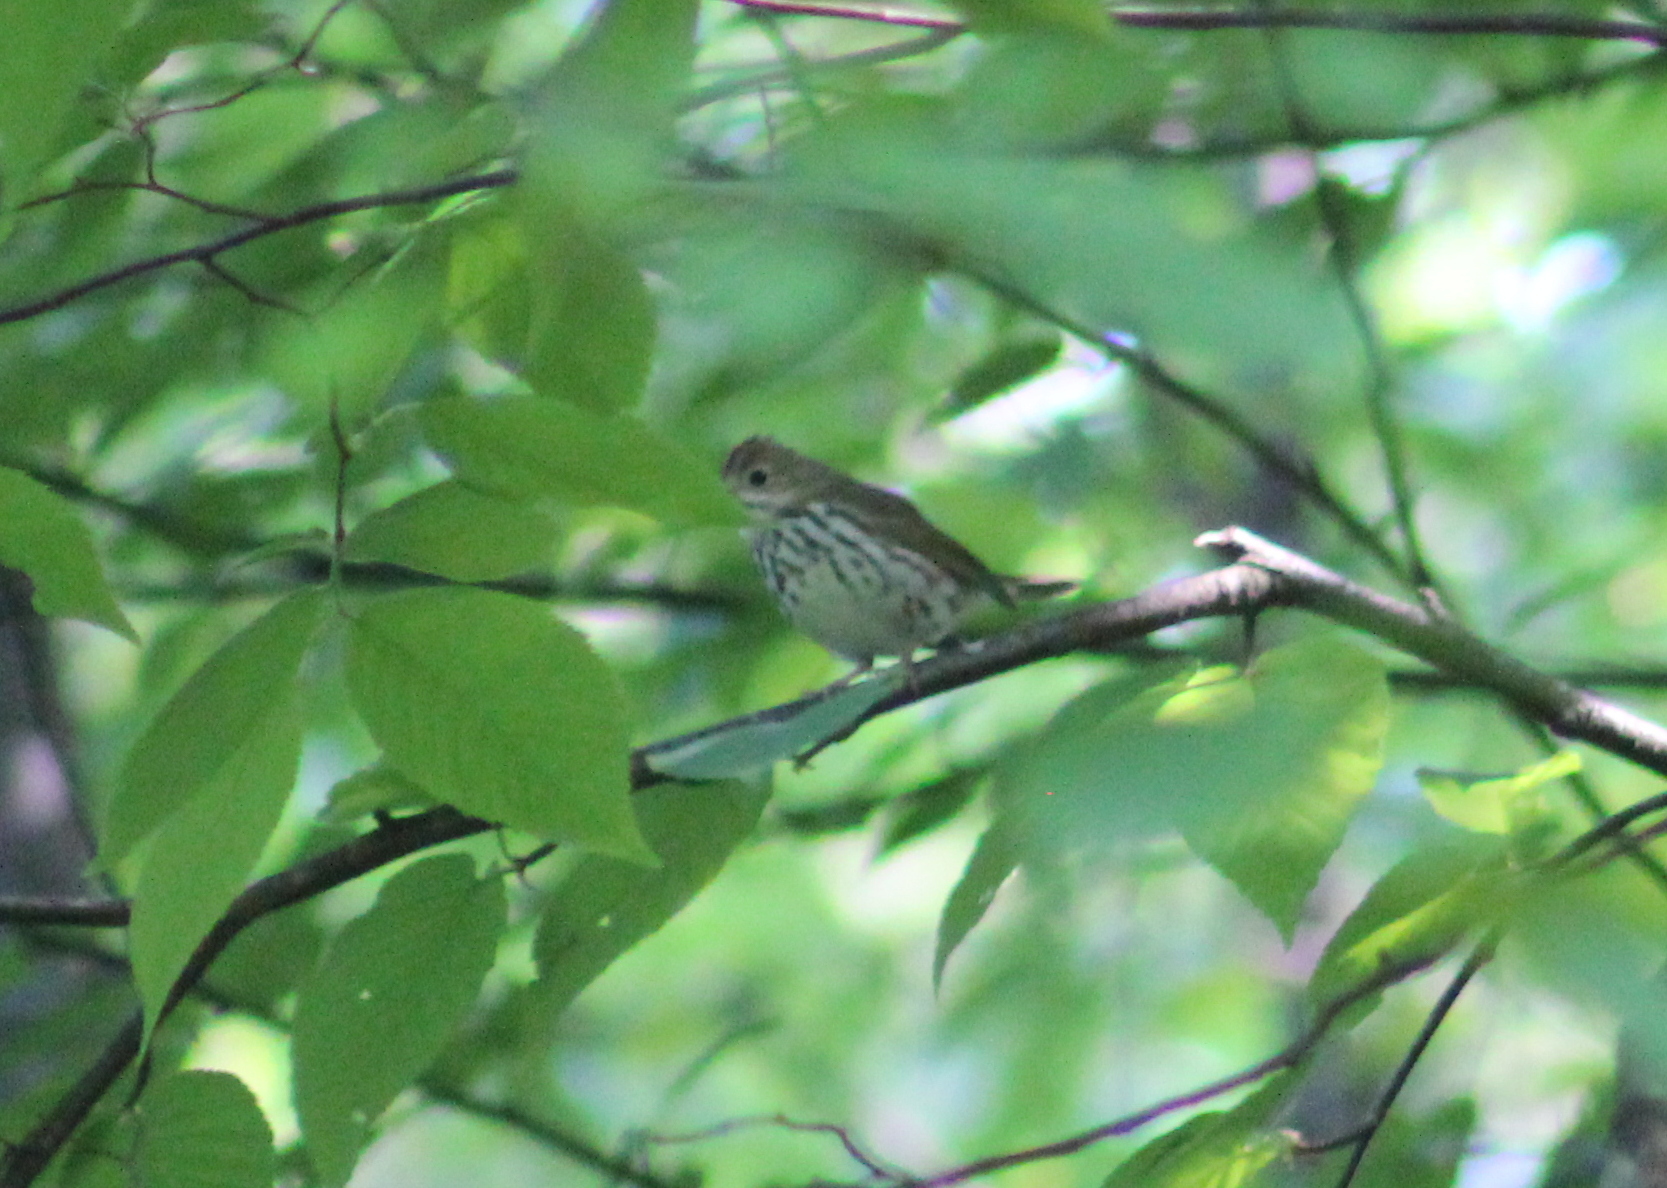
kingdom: Animalia
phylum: Chordata
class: Aves
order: Passeriformes
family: Parulidae
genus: Seiurus
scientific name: Seiurus aurocapilla
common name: Ovenbird
